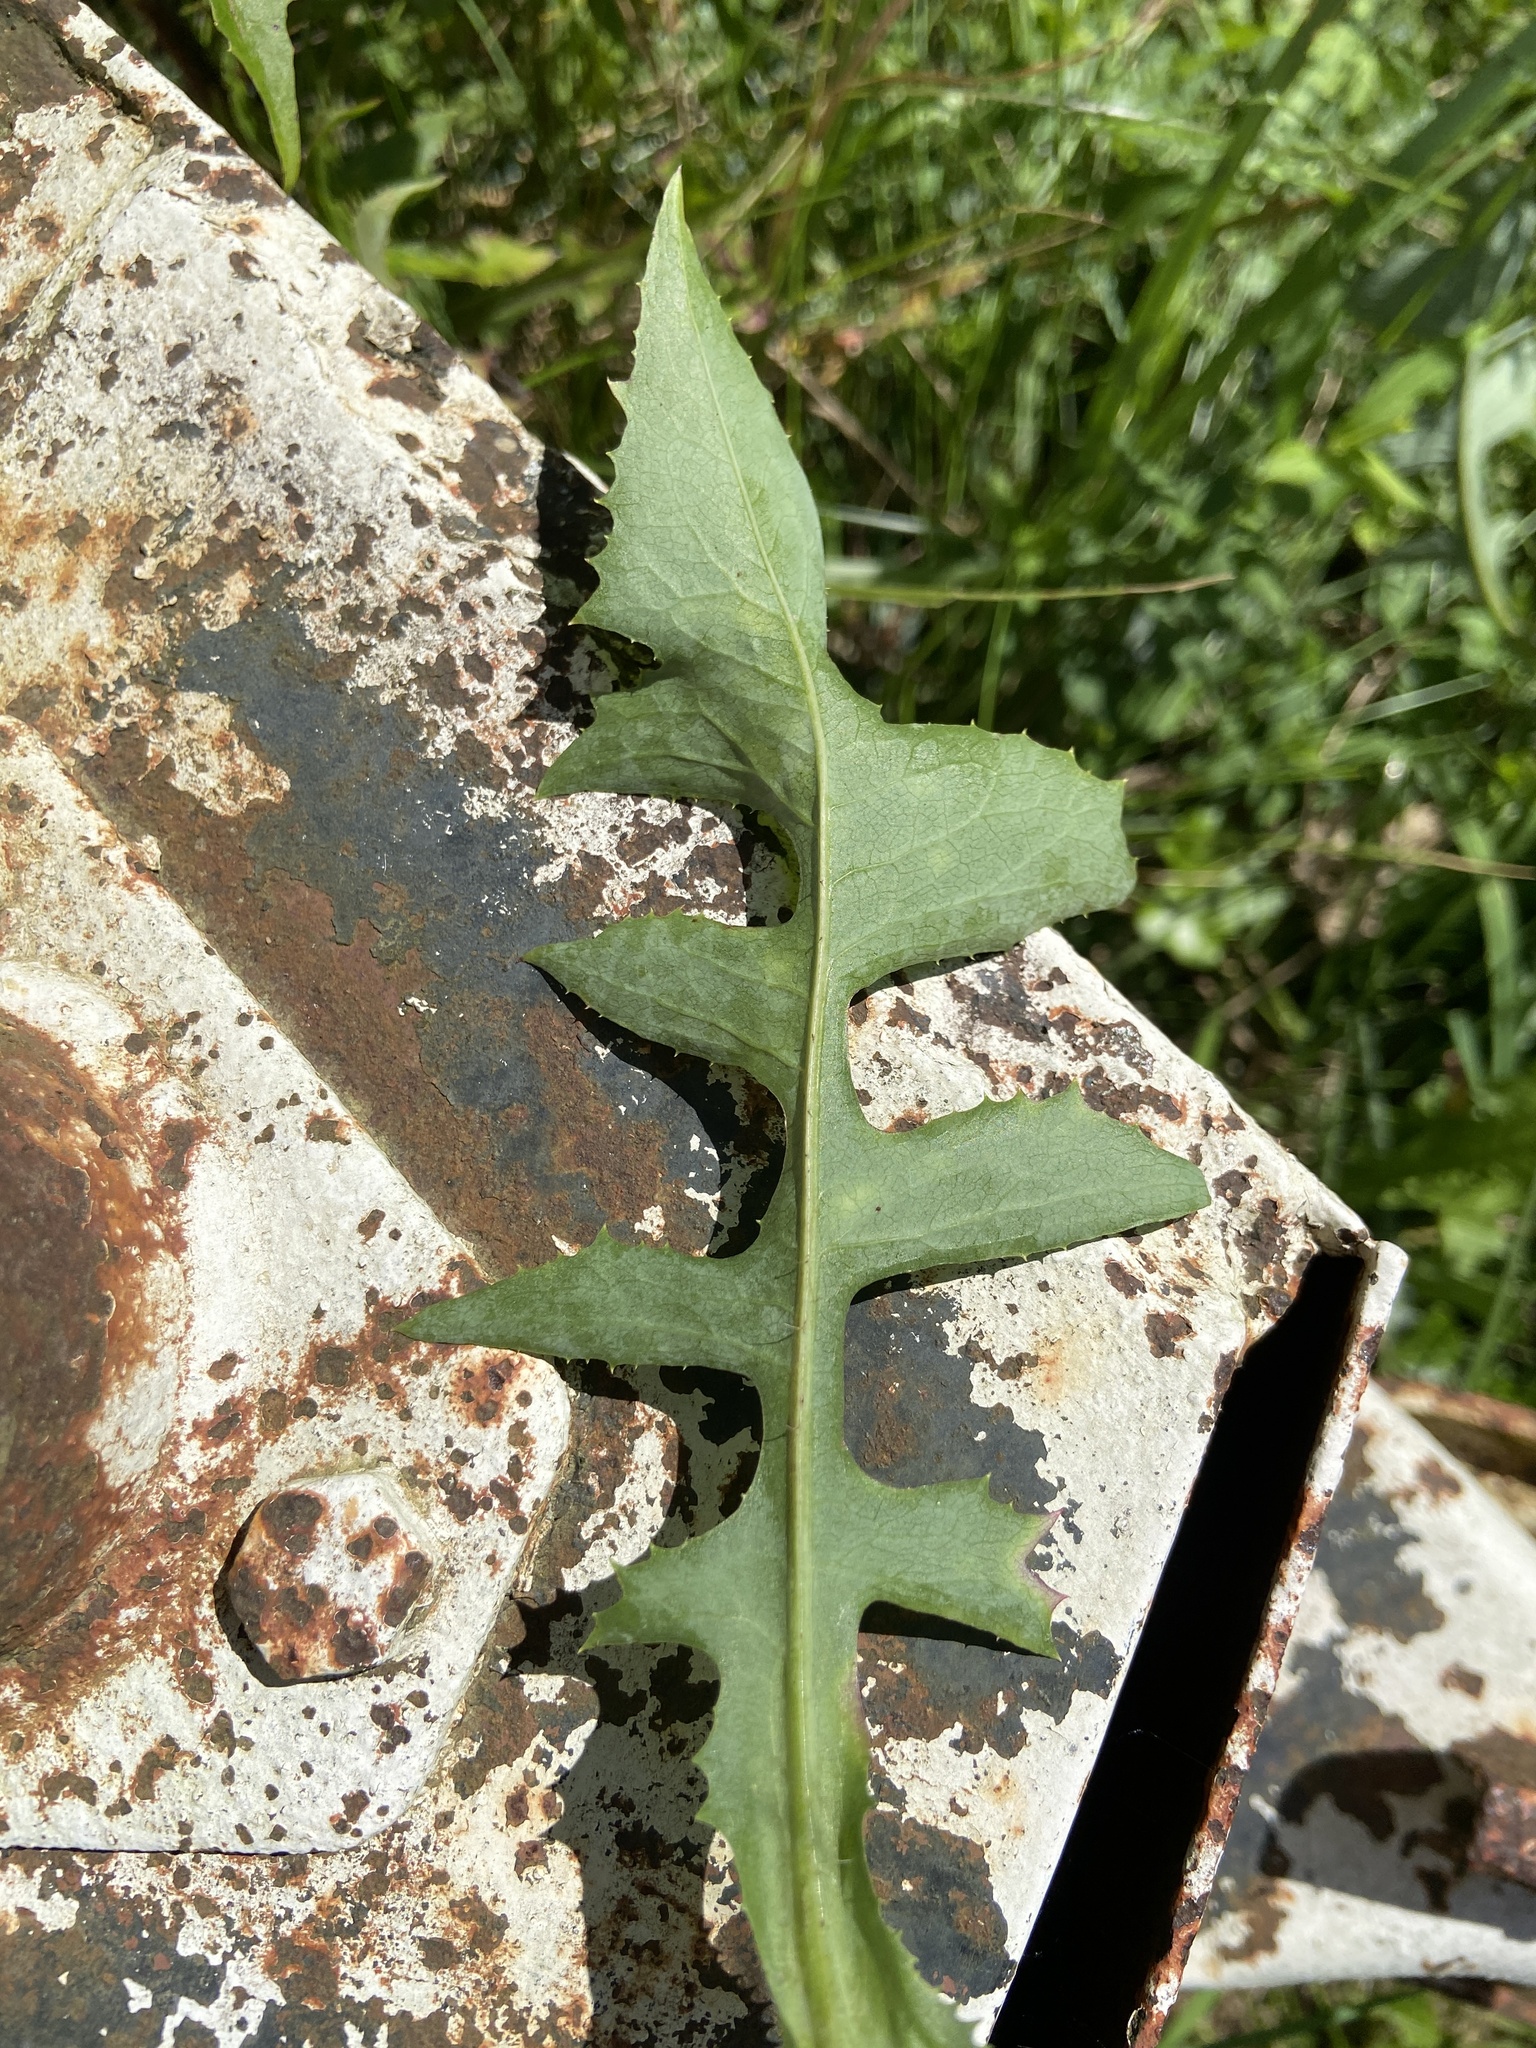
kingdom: Plantae
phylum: Tracheophyta
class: Magnoliopsida
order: Asterales
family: Asteraceae
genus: Lactuca
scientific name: Lactuca canadensis
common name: Canada lettuce
